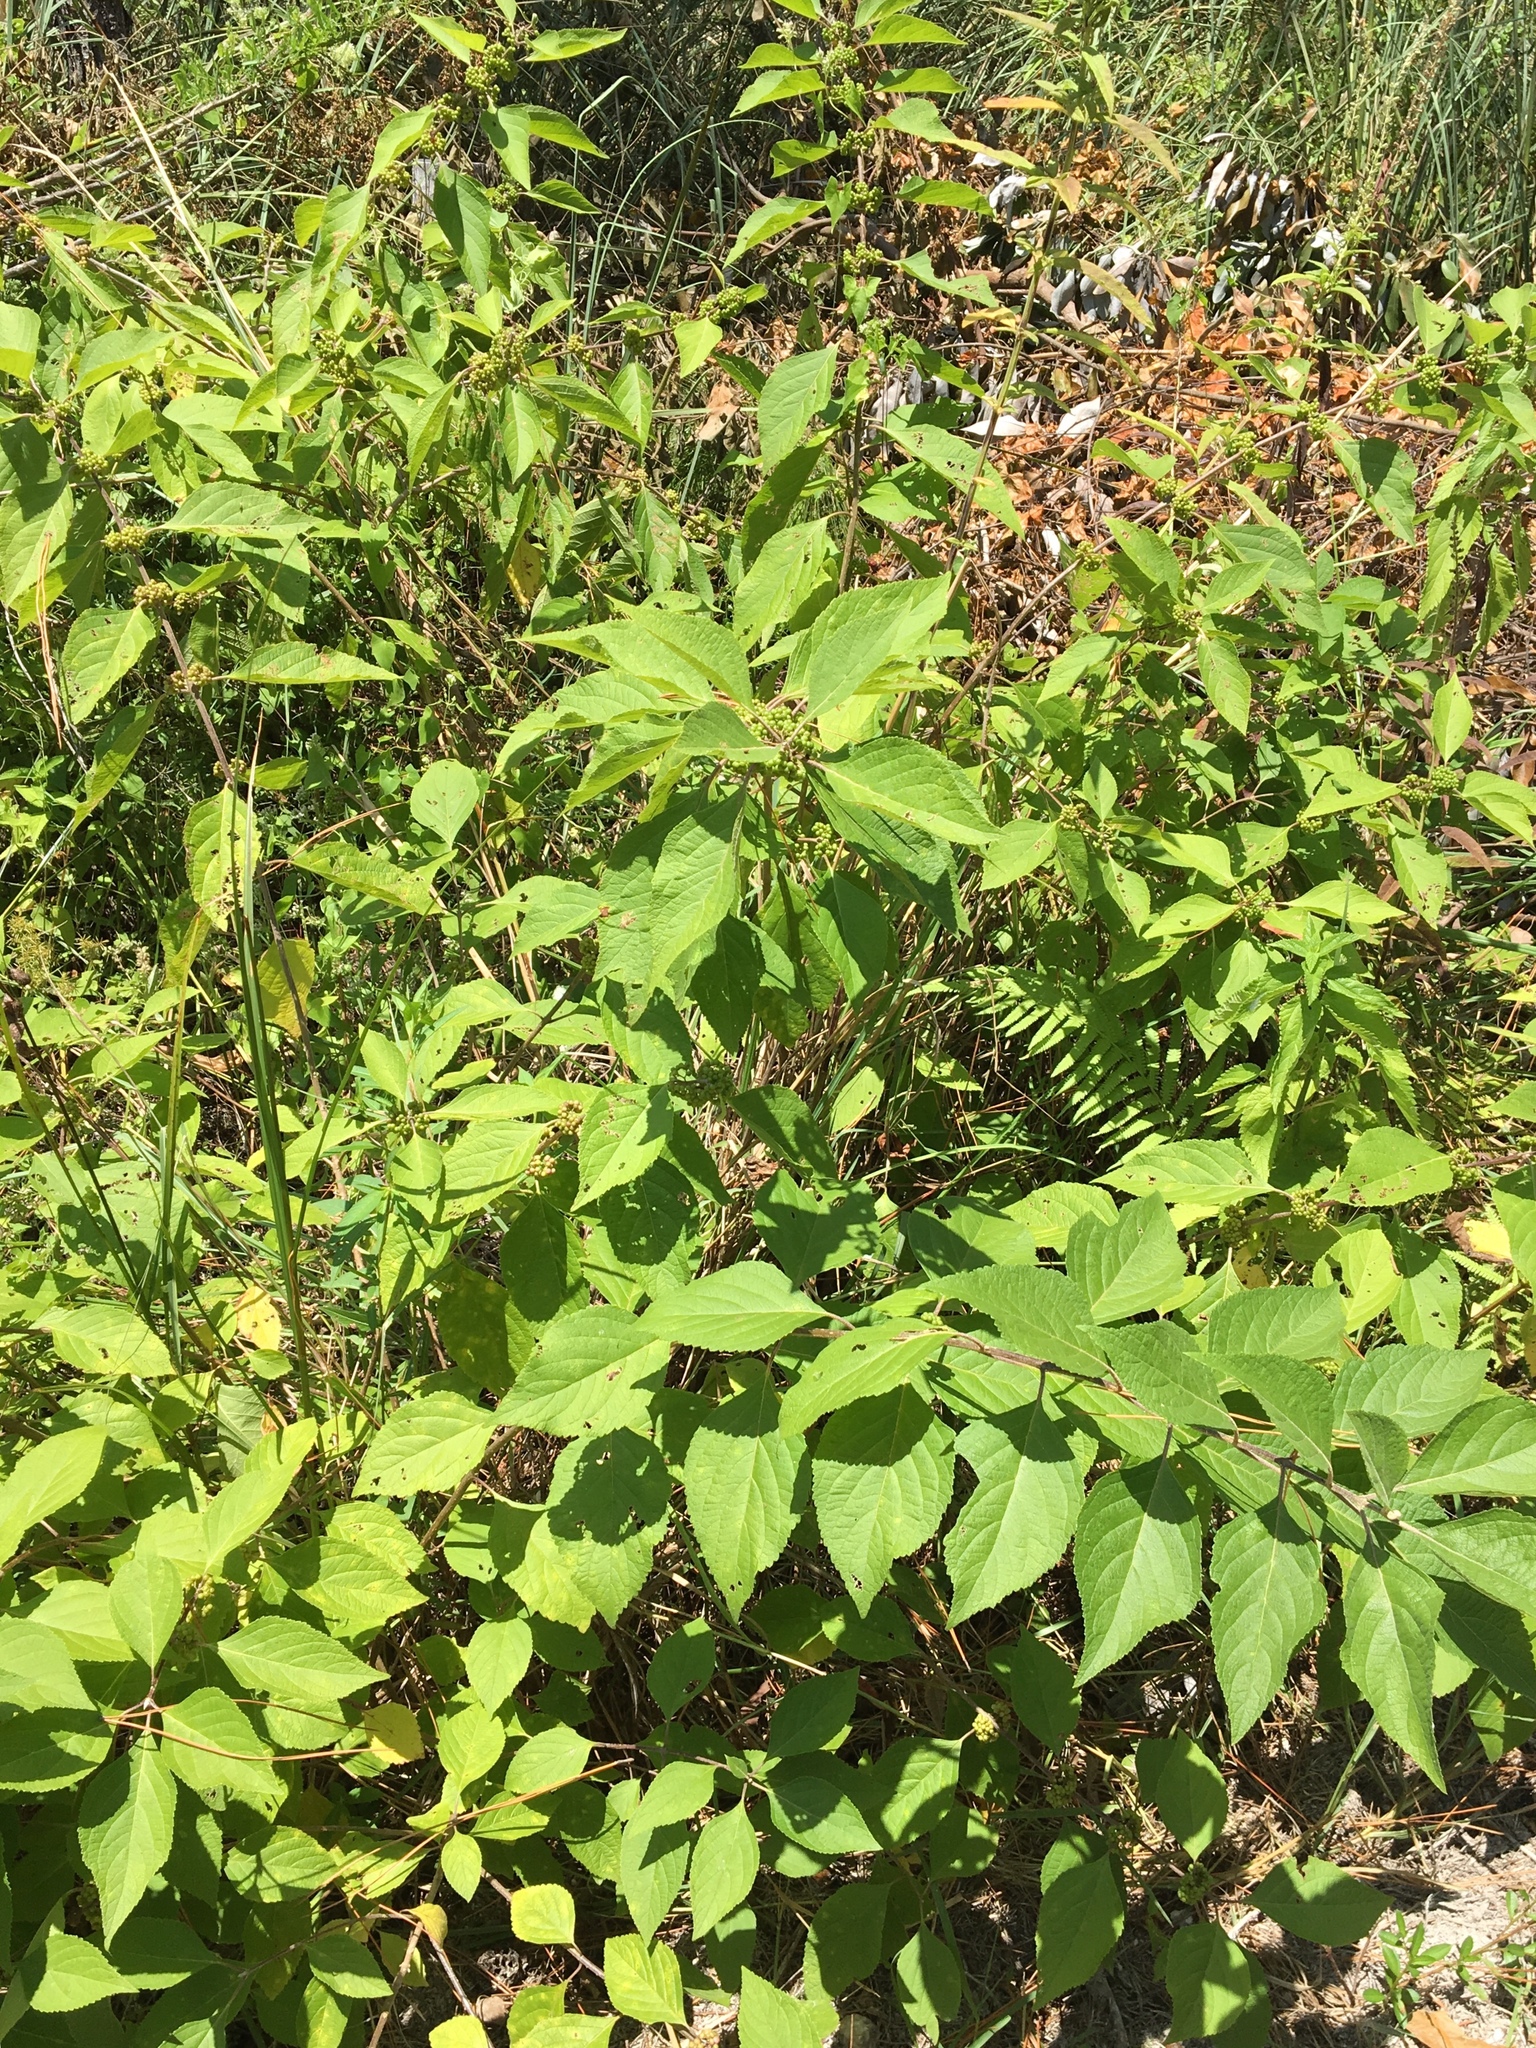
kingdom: Plantae
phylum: Tracheophyta
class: Magnoliopsida
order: Lamiales
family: Lamiaceae
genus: Callicarpa
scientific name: Callicarpa americana
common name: American beautyberry
